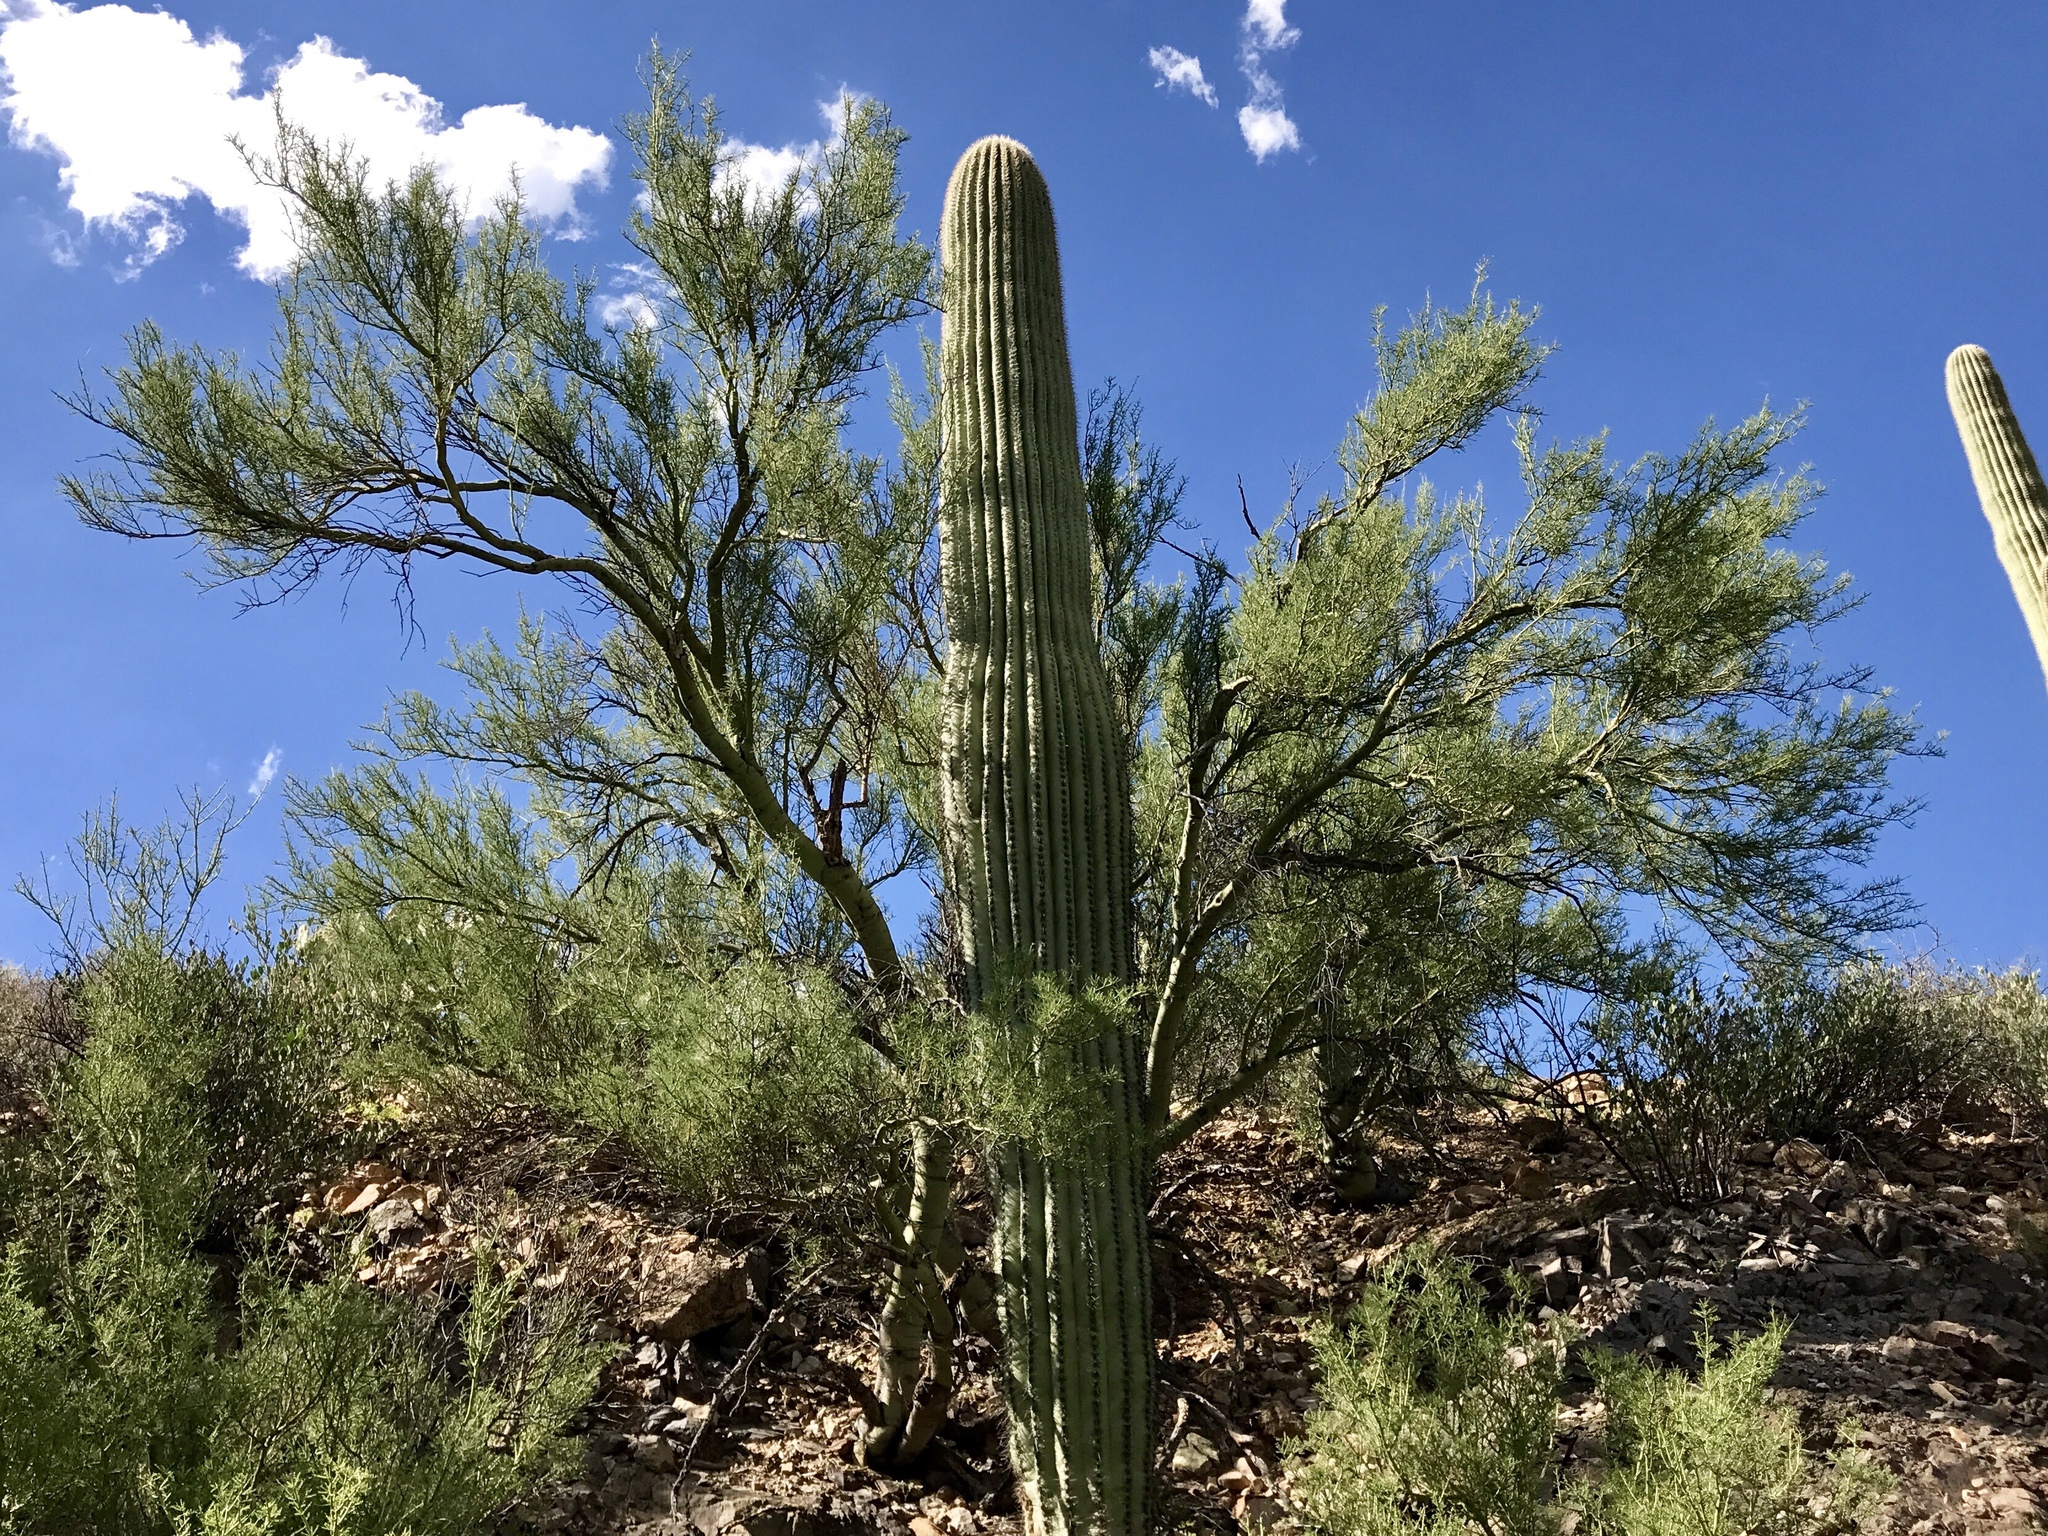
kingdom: Plantae
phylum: Tracheophyta
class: Magnoliopsida
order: Fabales
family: Fabaceae
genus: Parkinsonia
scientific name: Parkinsonia microphylla
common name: Yellow paloverde
